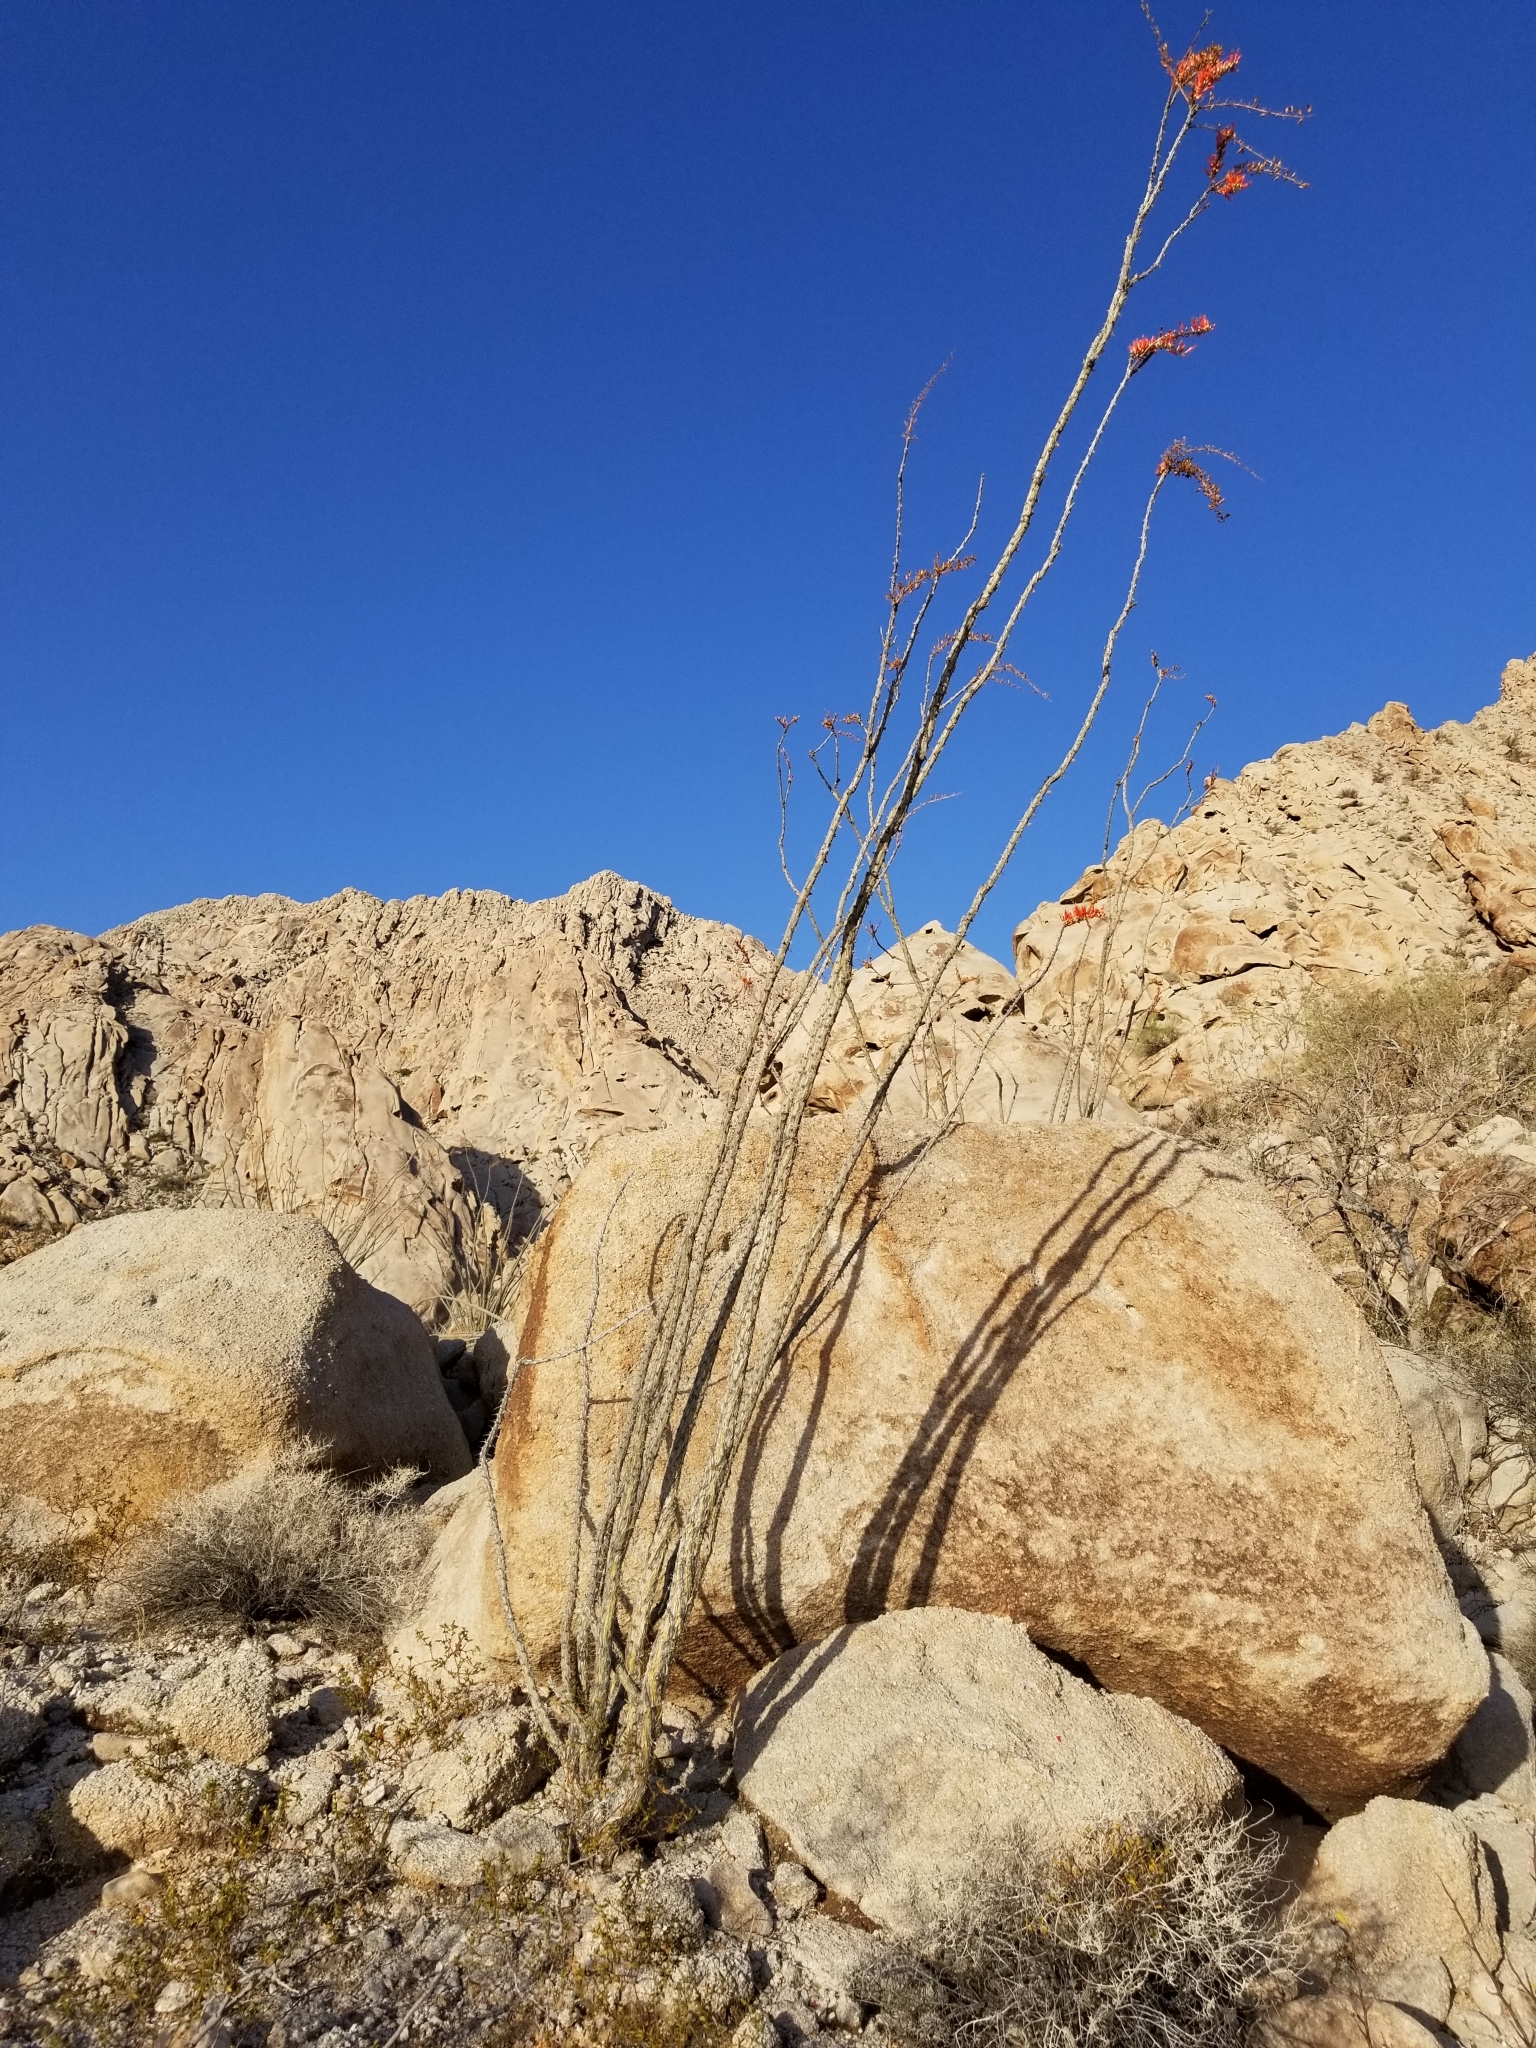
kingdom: Plantae
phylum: Tracheophyta
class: Magnoliopsida
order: Ericales
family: Fouquieriaceae
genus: Fouquieria
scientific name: Fouquieria splendens
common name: Vine-cactus
